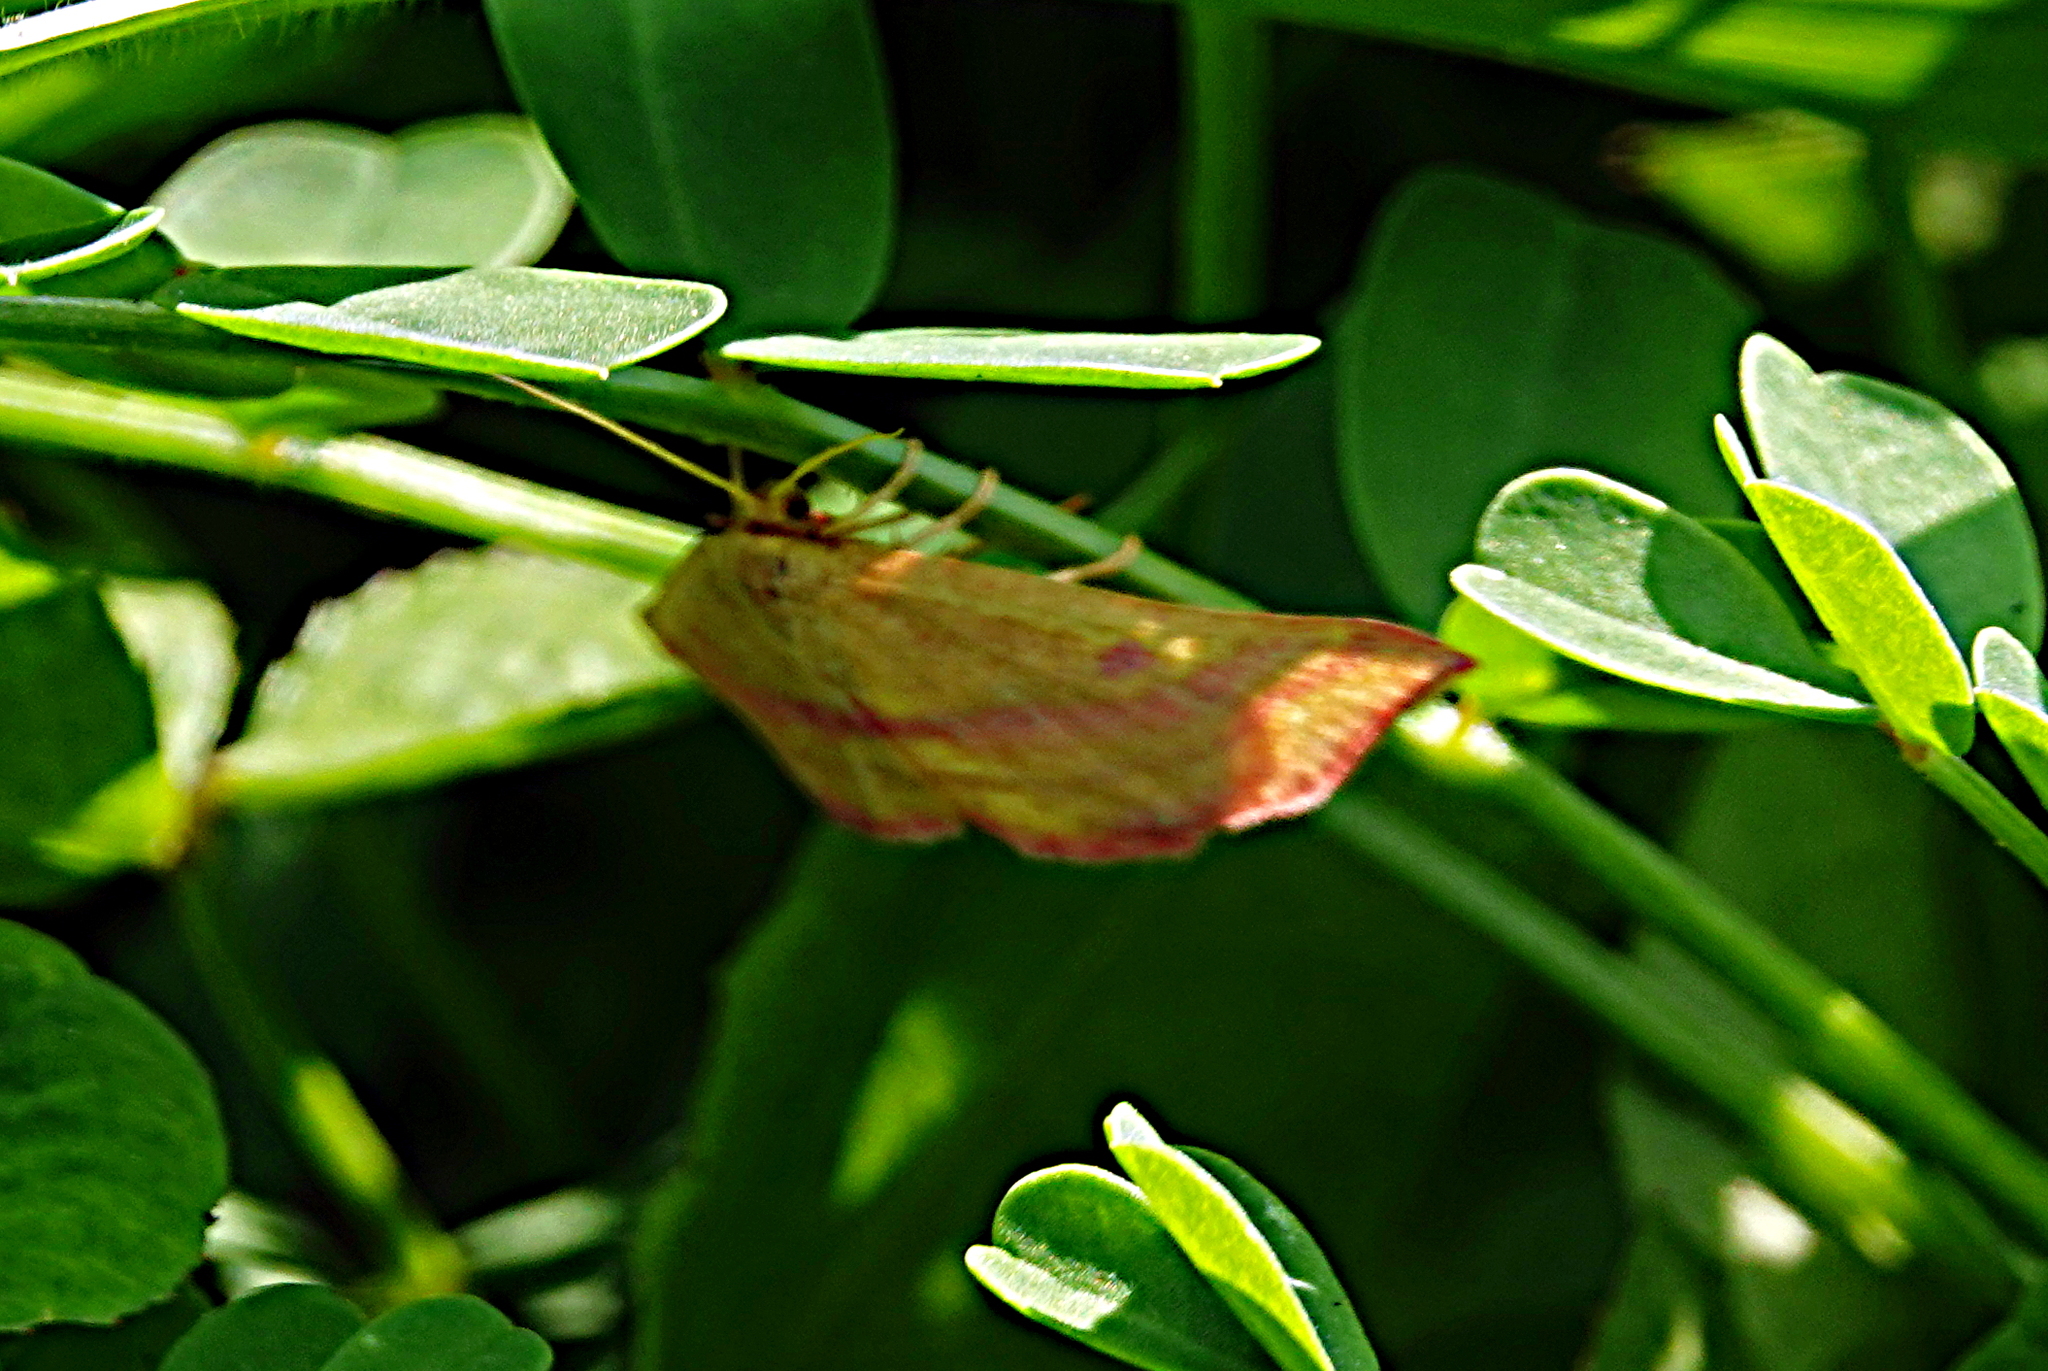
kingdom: Animalia
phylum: Arthropoda
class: Insecta
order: Lepidoptera
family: Geometridae
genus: Haematopis
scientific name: Haematopis grataria
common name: Chickweed geometer
